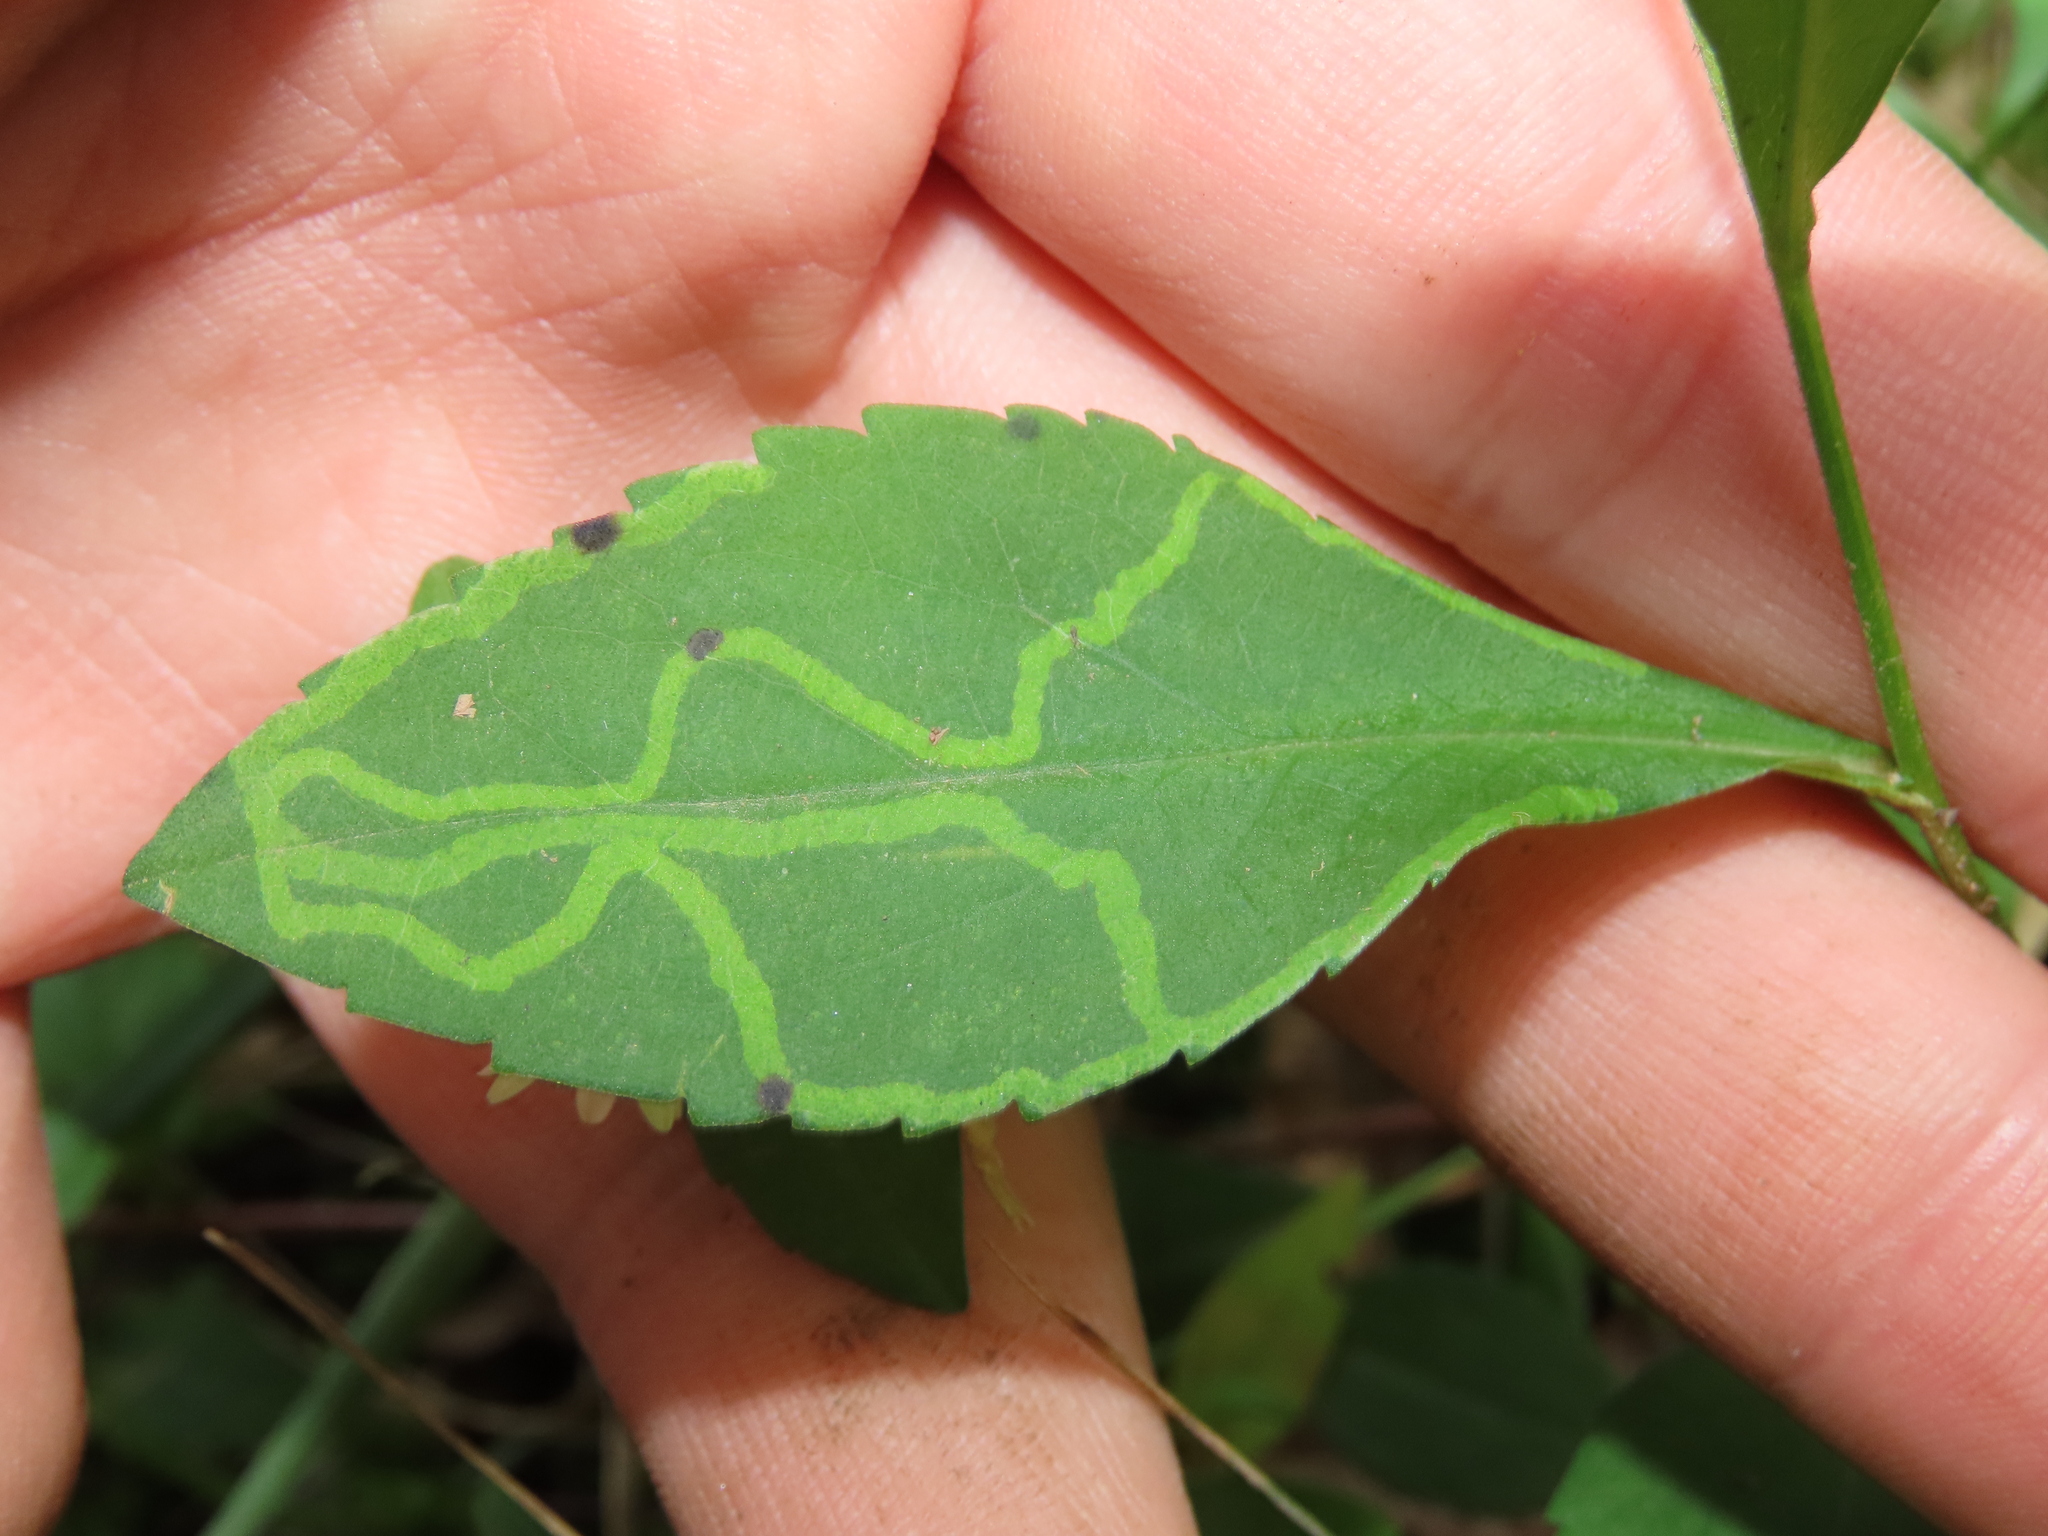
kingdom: Animalia
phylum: Arthropoda
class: Insecta
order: Diptera
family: Agromyzidae
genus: Ophiomyia
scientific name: Ophiomyia parda
